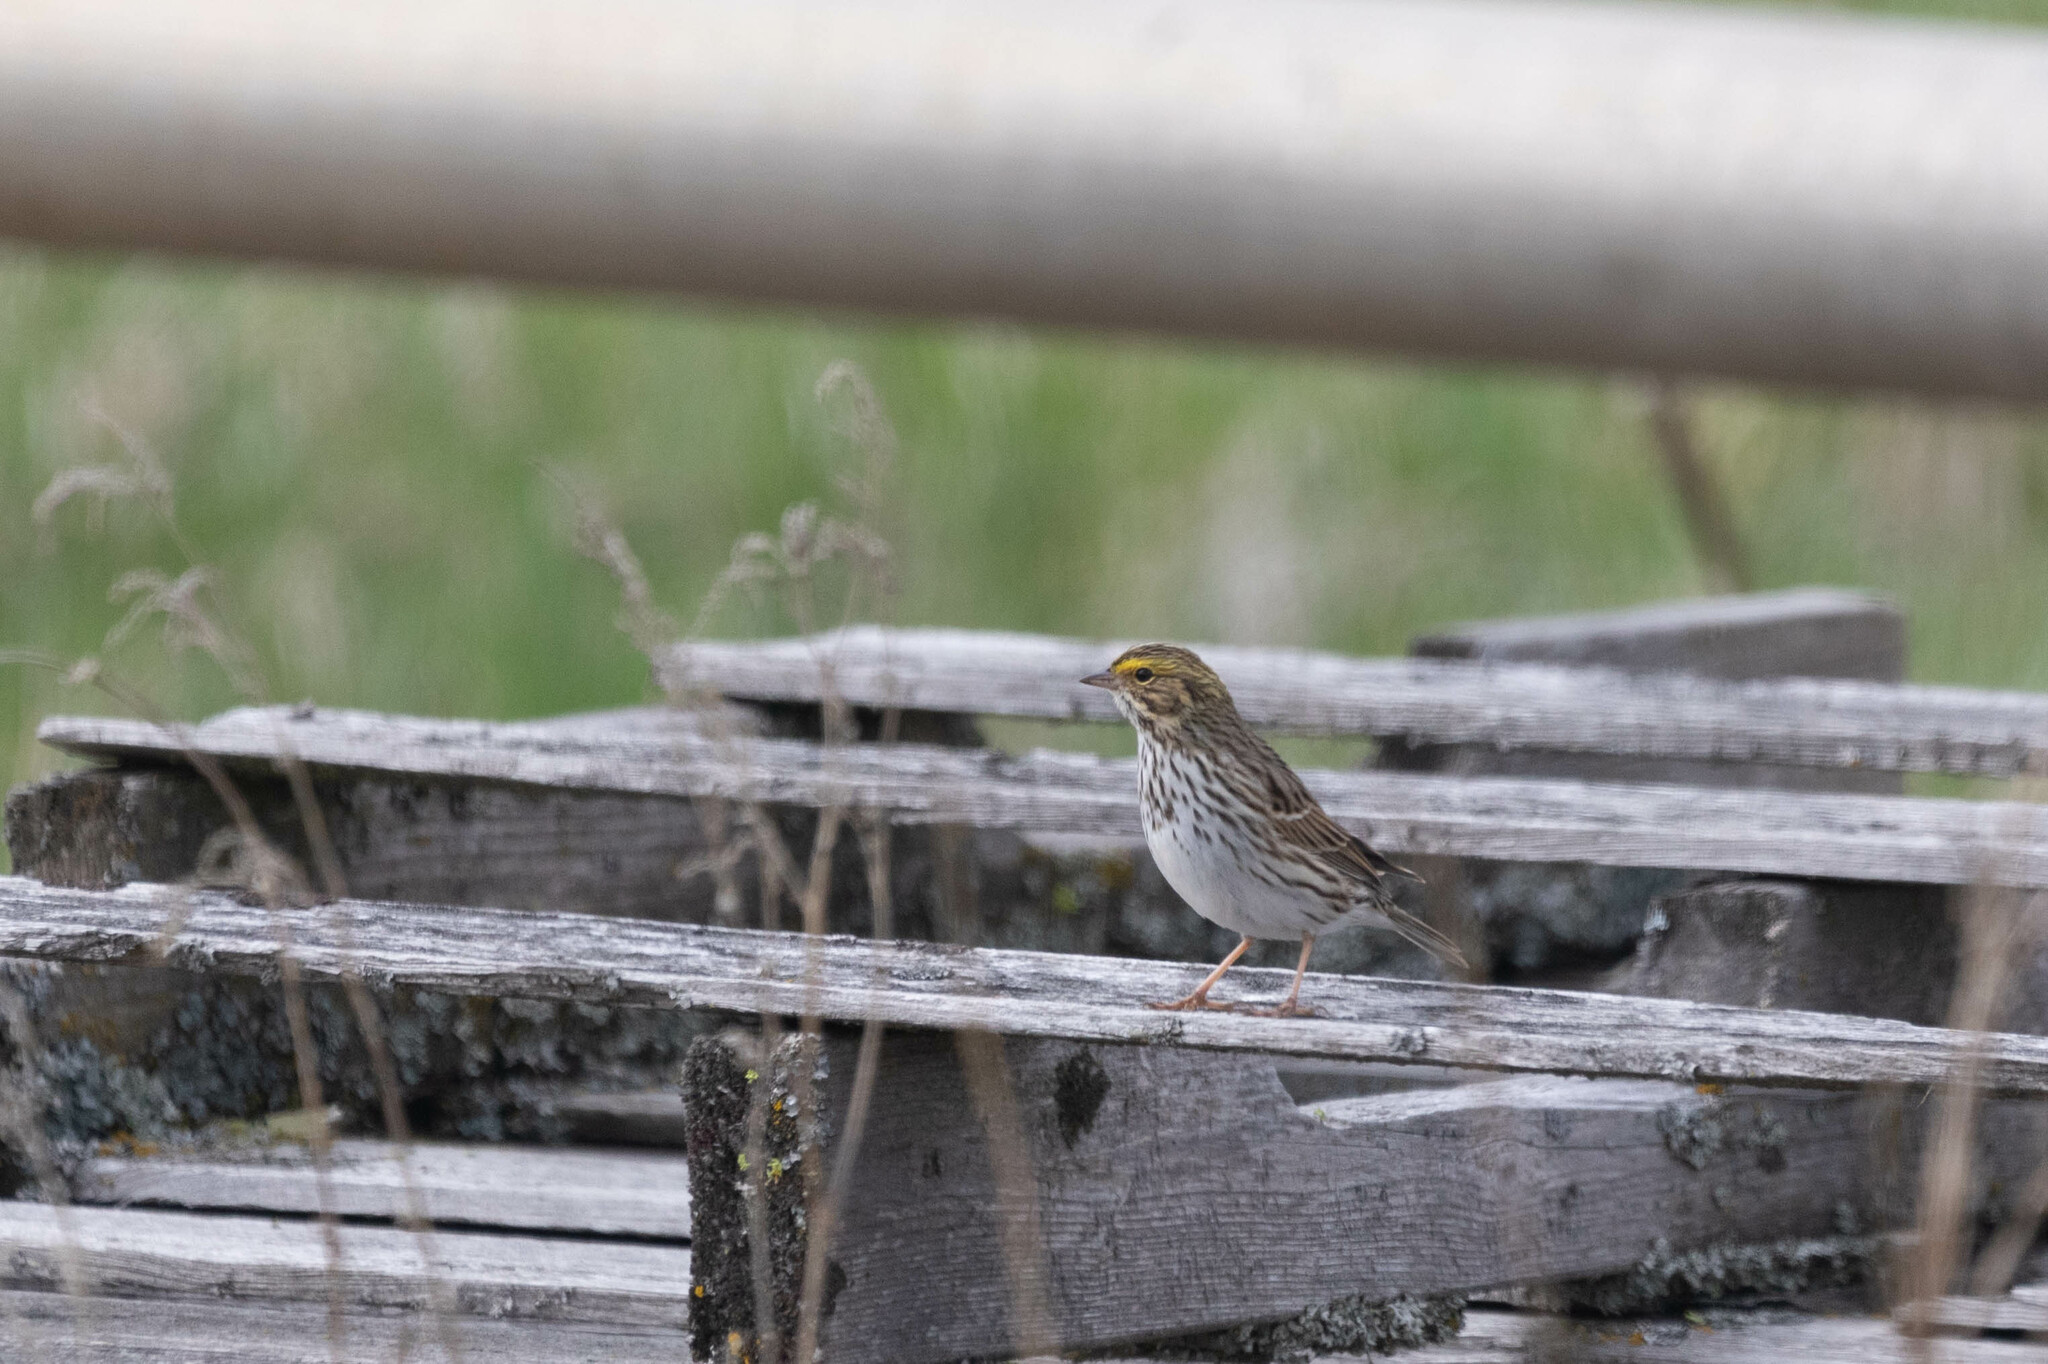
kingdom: Animalia
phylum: Chordata
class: Aves
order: Passeriformes
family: Passerellidae
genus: Passerculus
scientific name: Passerculus sandwichensis
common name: Savannah sparrow
